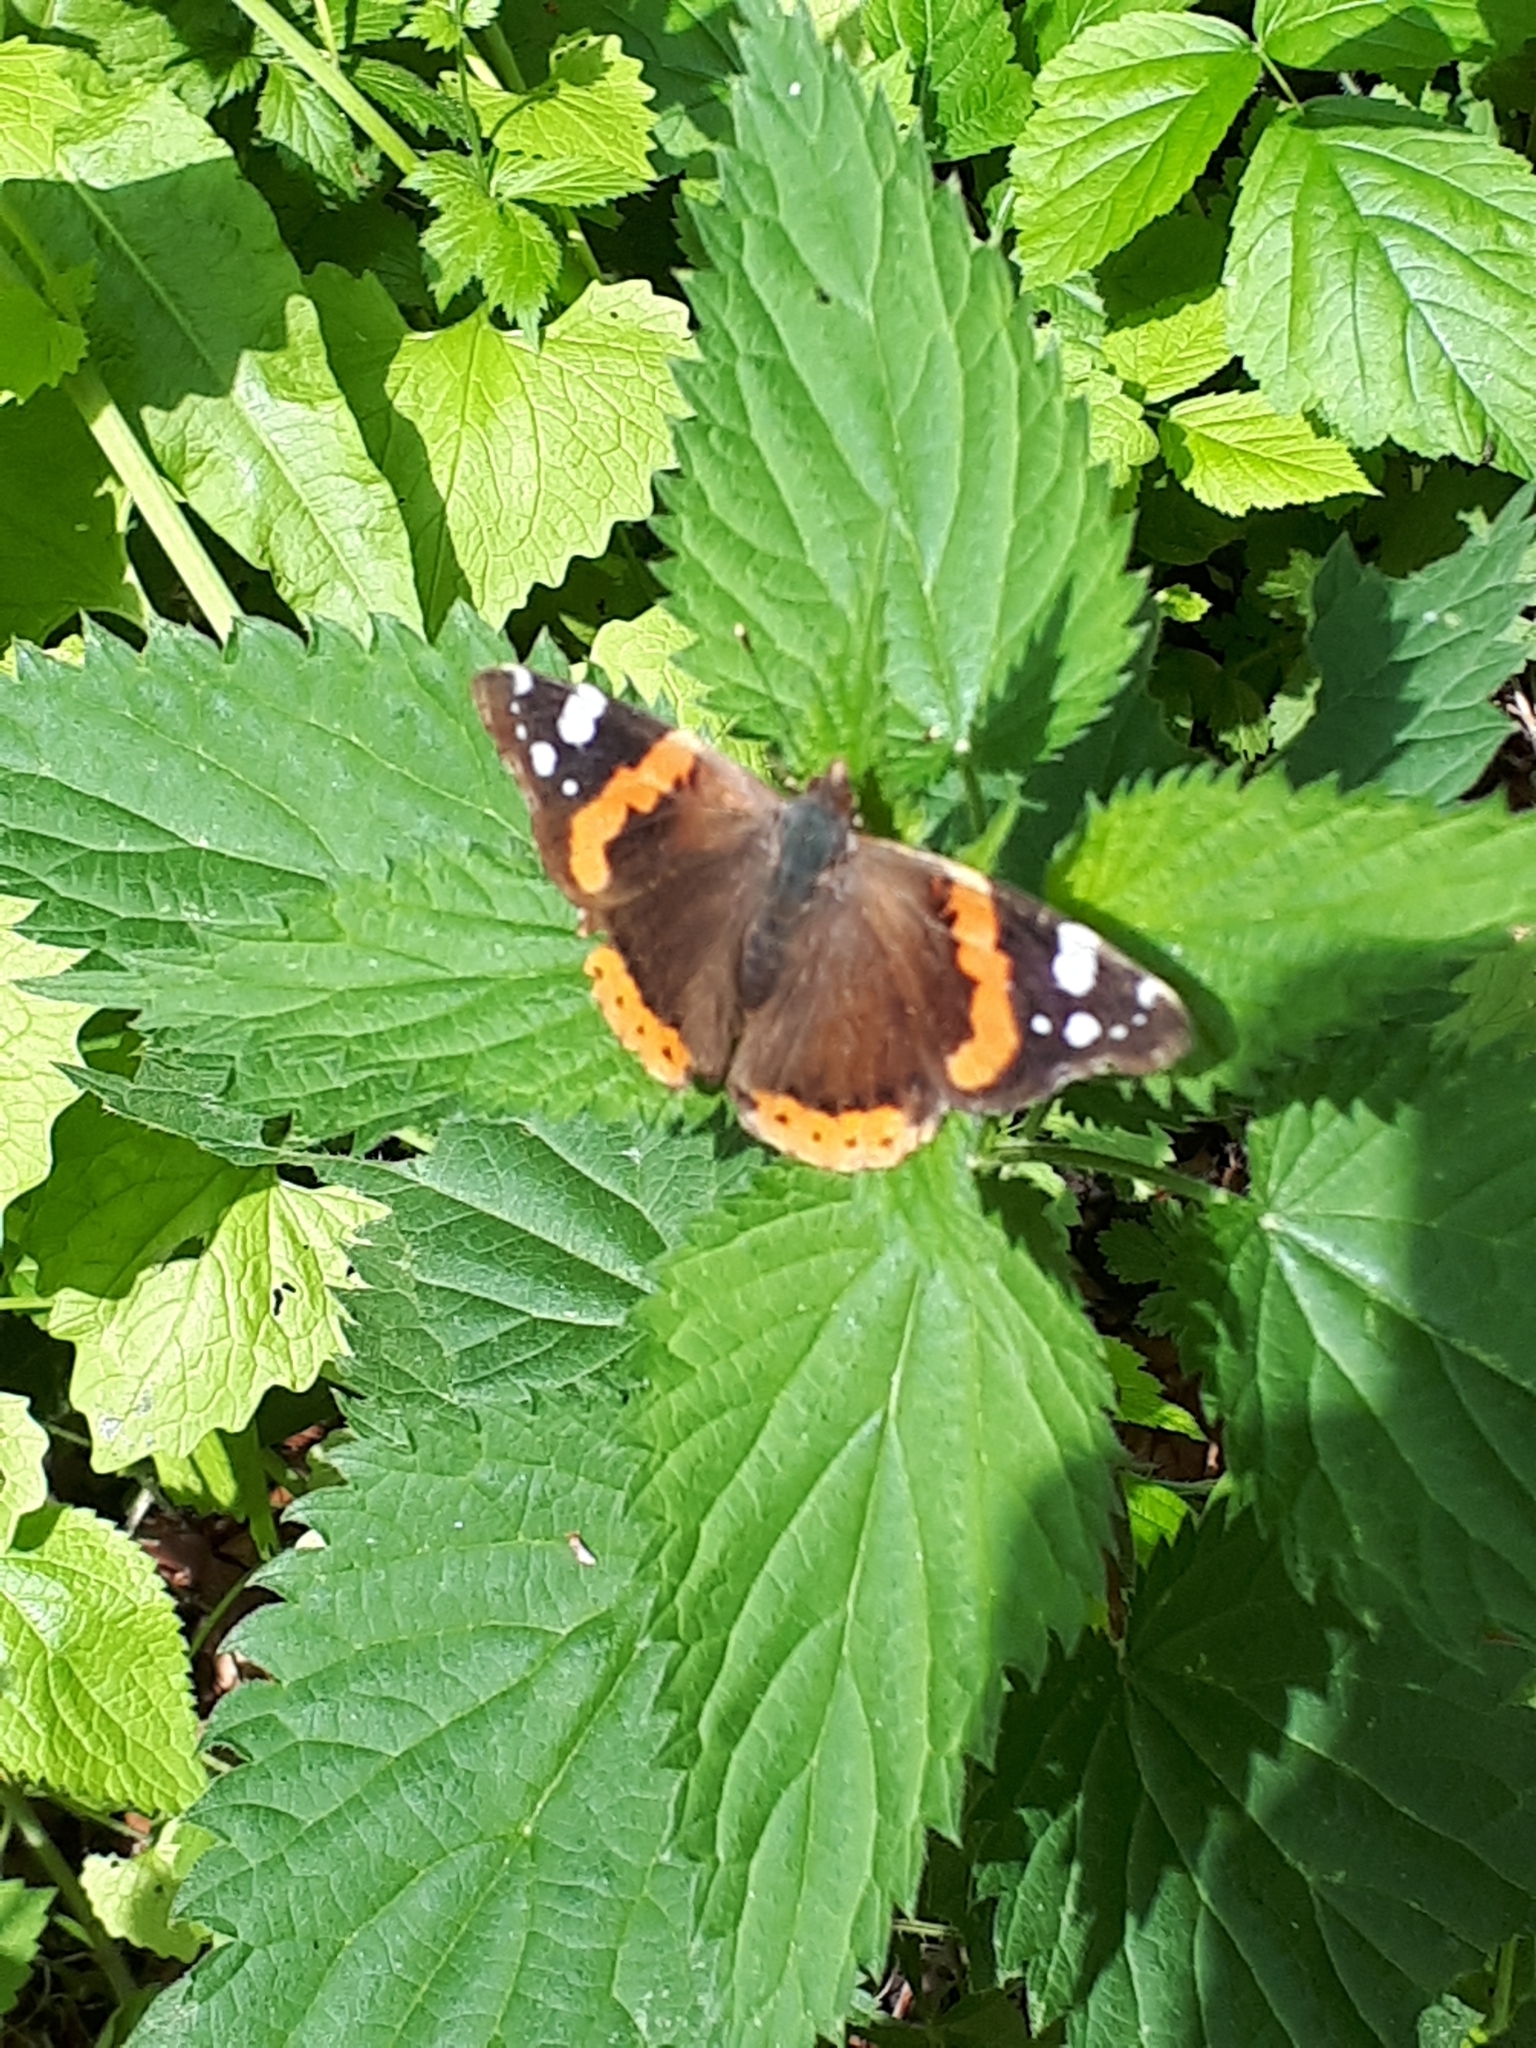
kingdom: Animalia
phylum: Arthropoda
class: Insecta
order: Lepidoptera
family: Nymphalidae
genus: Vanessa
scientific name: Vanessa atalanta
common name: Red admiral
